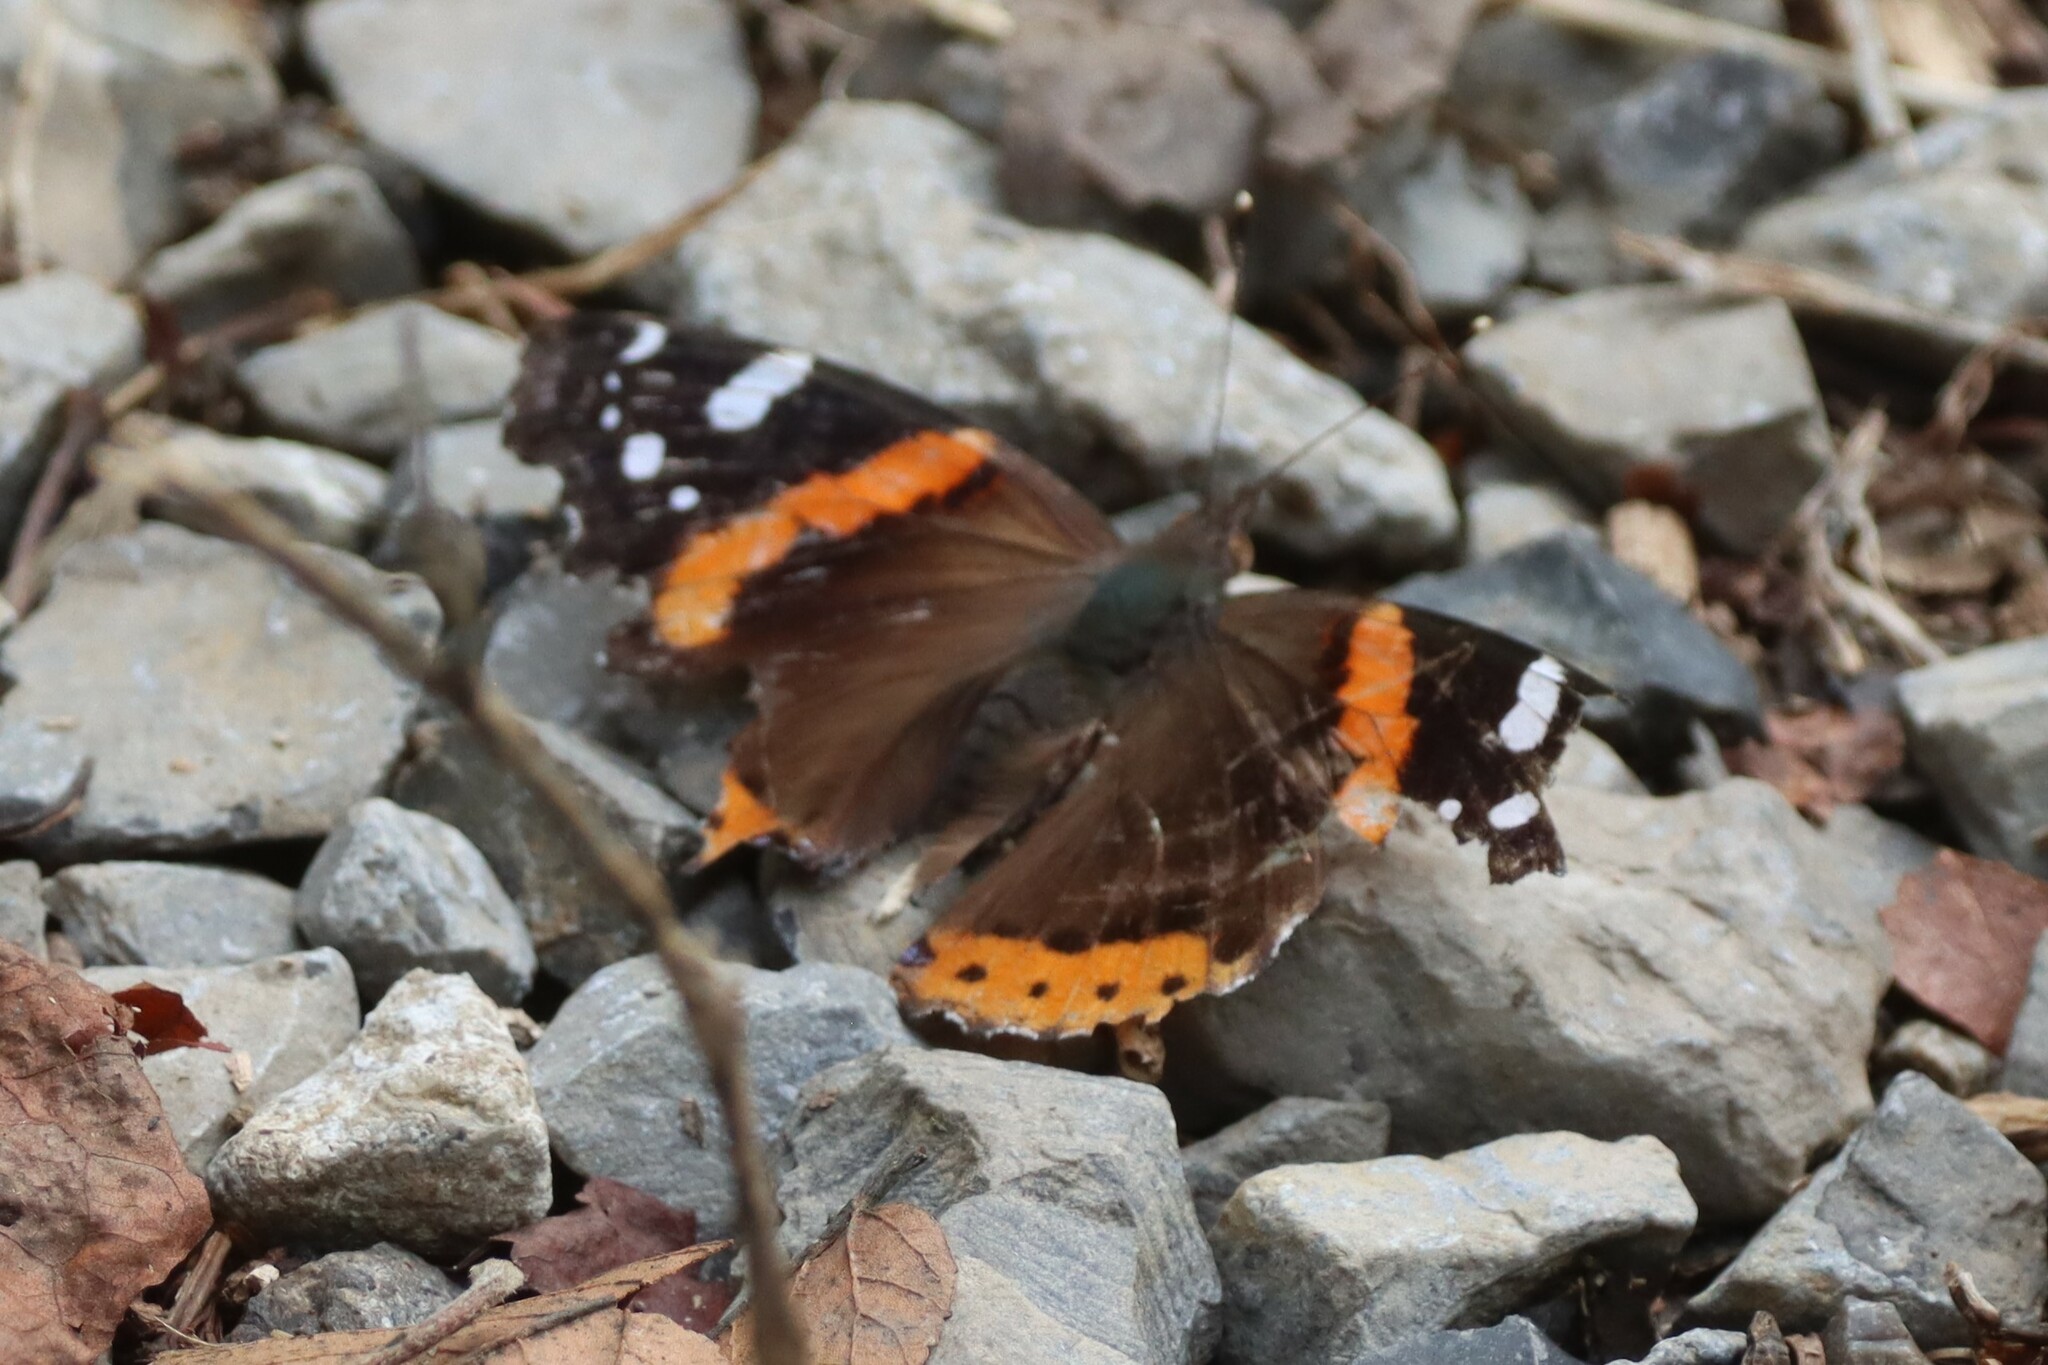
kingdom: Animalia
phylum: Arthropoda
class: Insecta
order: Lepidoptera
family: Nymphalidae
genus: Vanessa
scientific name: Vanessa atalanta
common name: Red admiral
